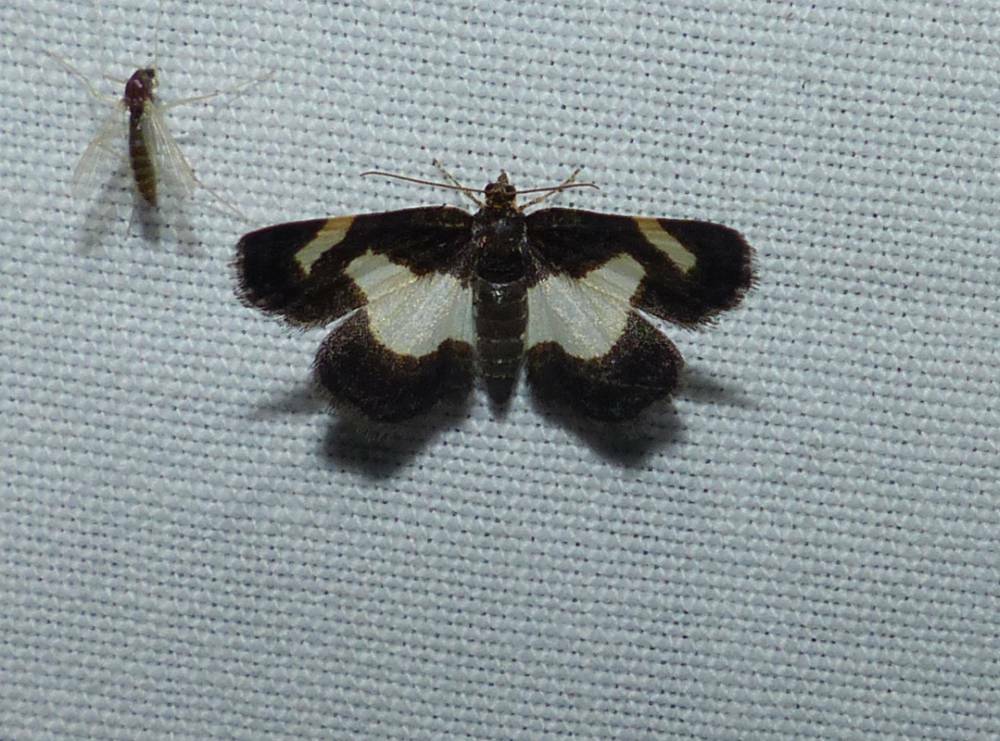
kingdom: Animalia
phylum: Arthropoda
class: Insecta
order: Lepidoptera
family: Geometridae
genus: Heliomata
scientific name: Heliomata cycladata
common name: Common spring moth
